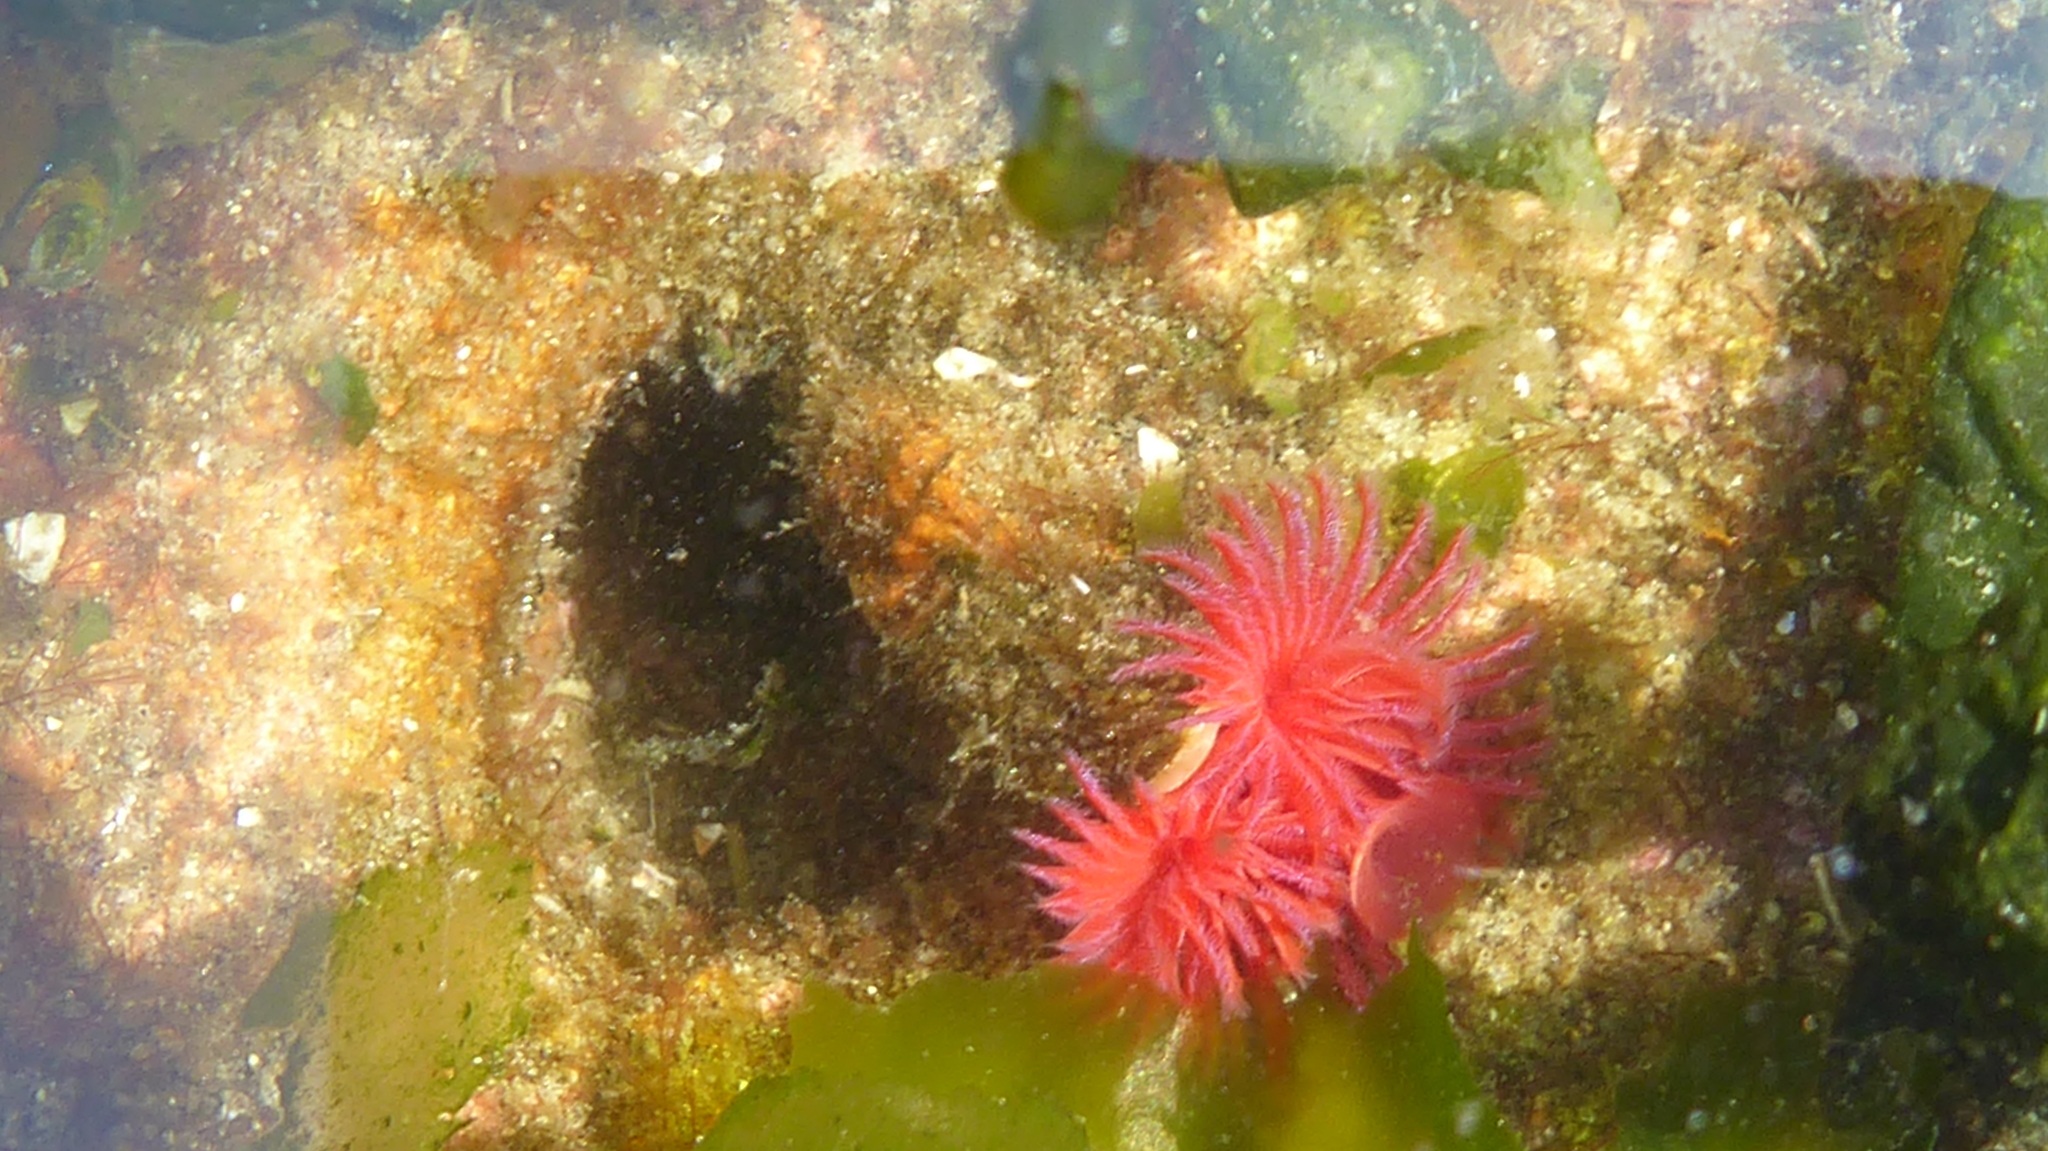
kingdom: Animalia
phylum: Annelida
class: Polychaeta
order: Sabellida
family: Serpulidae
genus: Serpula
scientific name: Serpula columbiana
